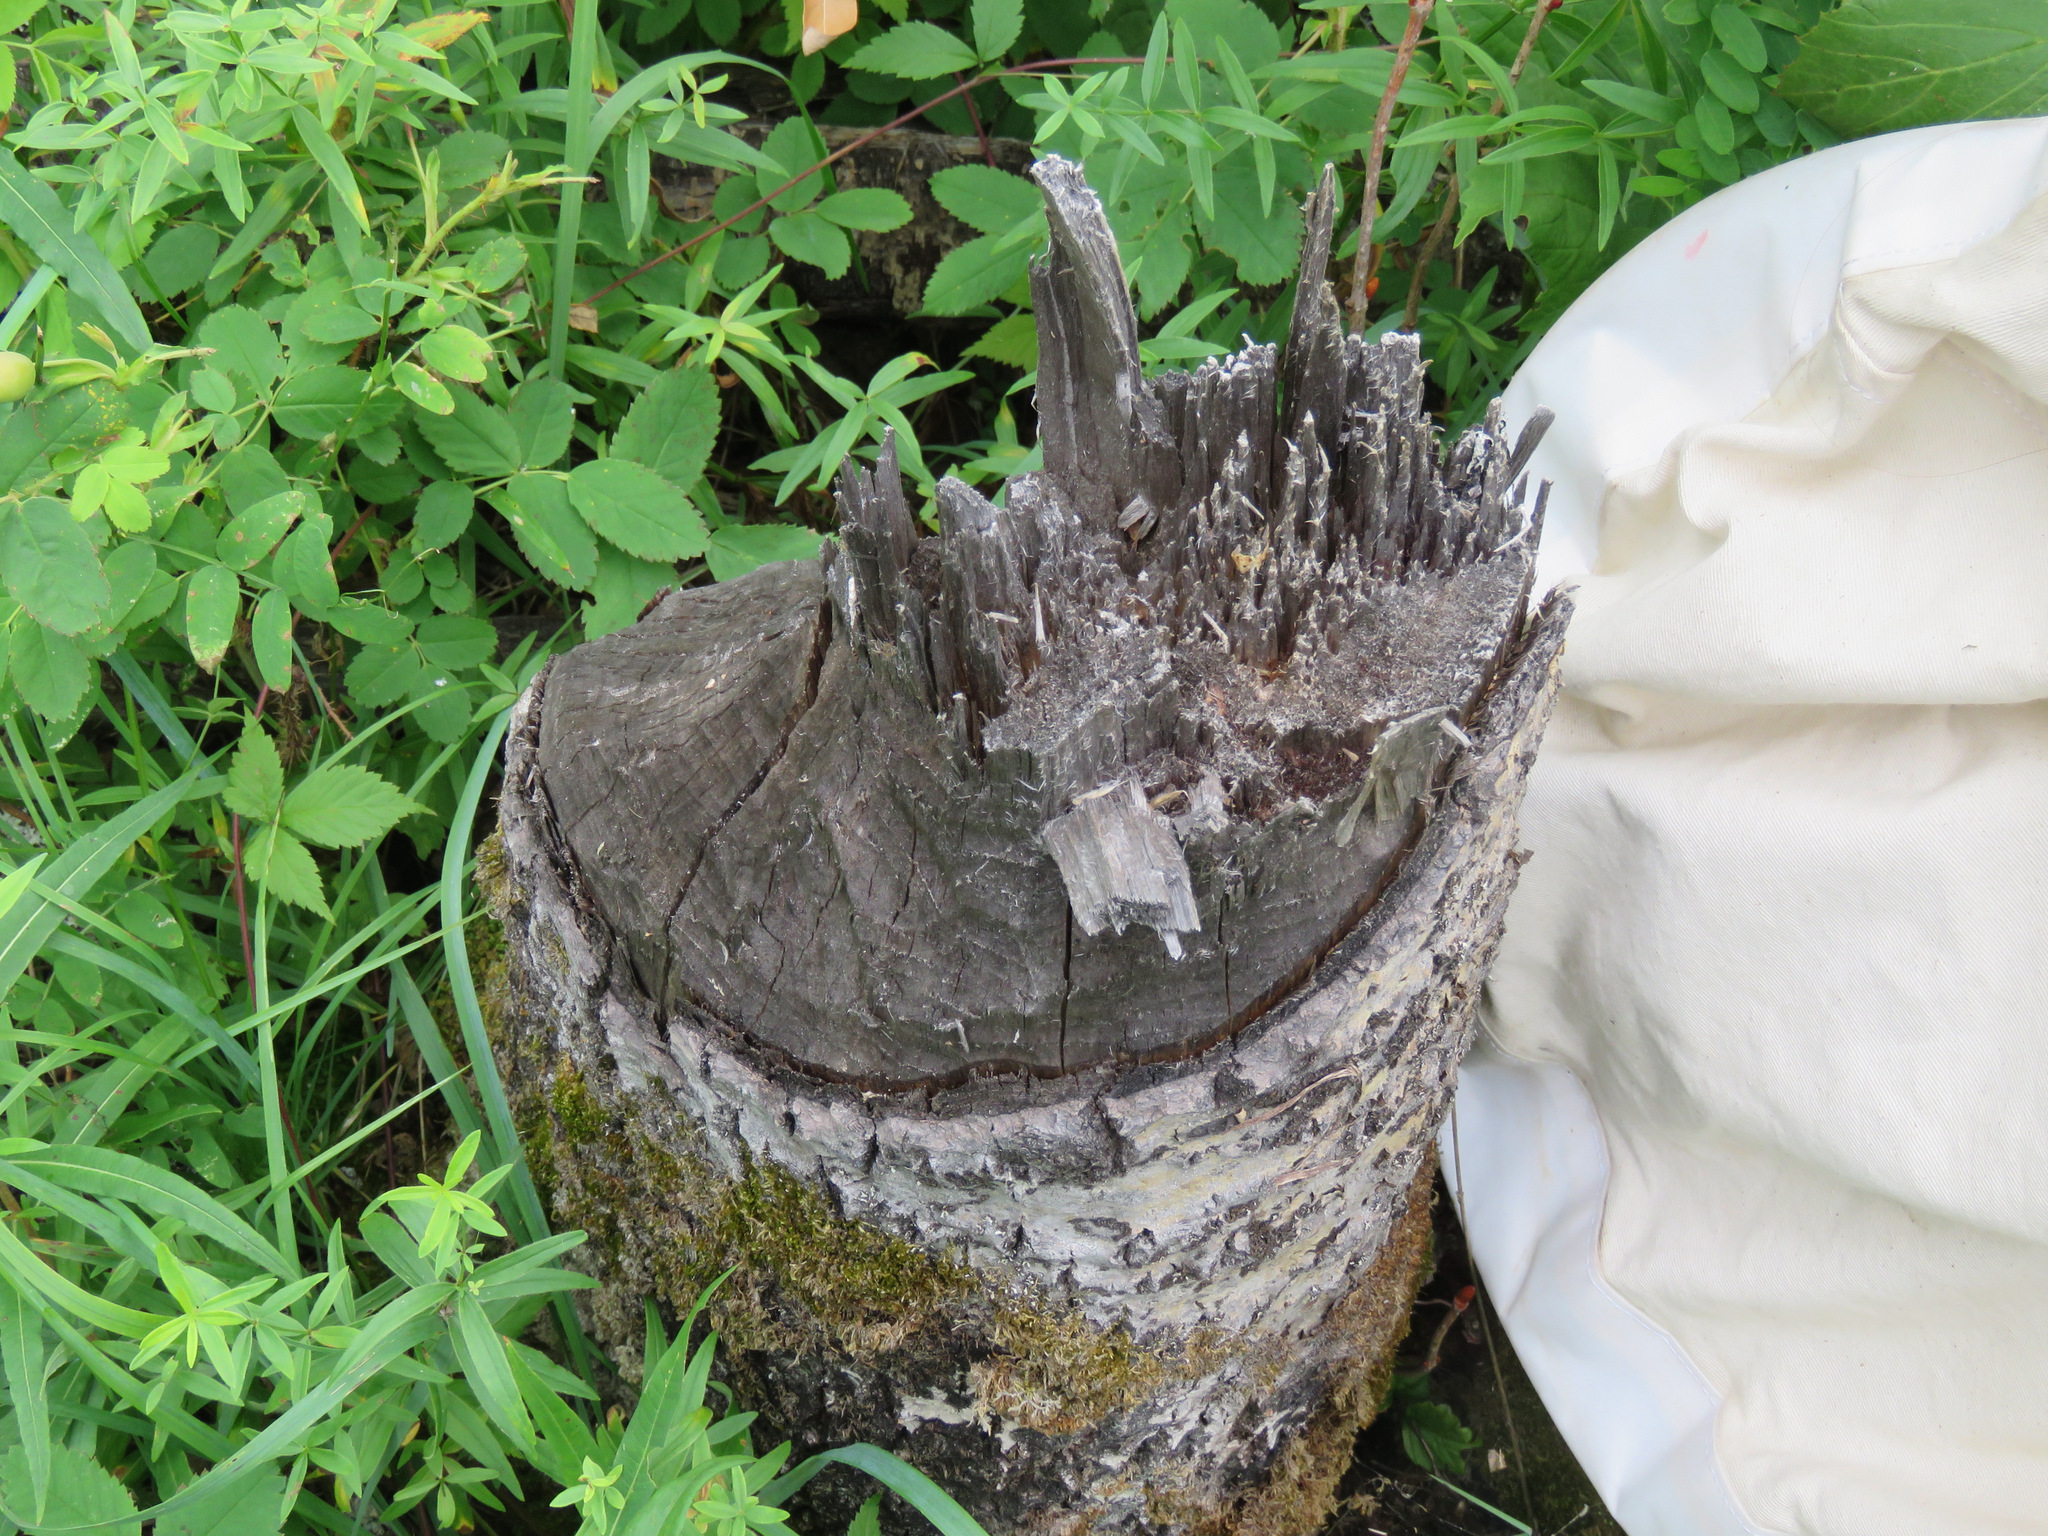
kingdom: Animalia
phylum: Chordata
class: Mammalia
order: Rodentia
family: Castoridae
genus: Castor
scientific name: Castor canadensis
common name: American beaver
